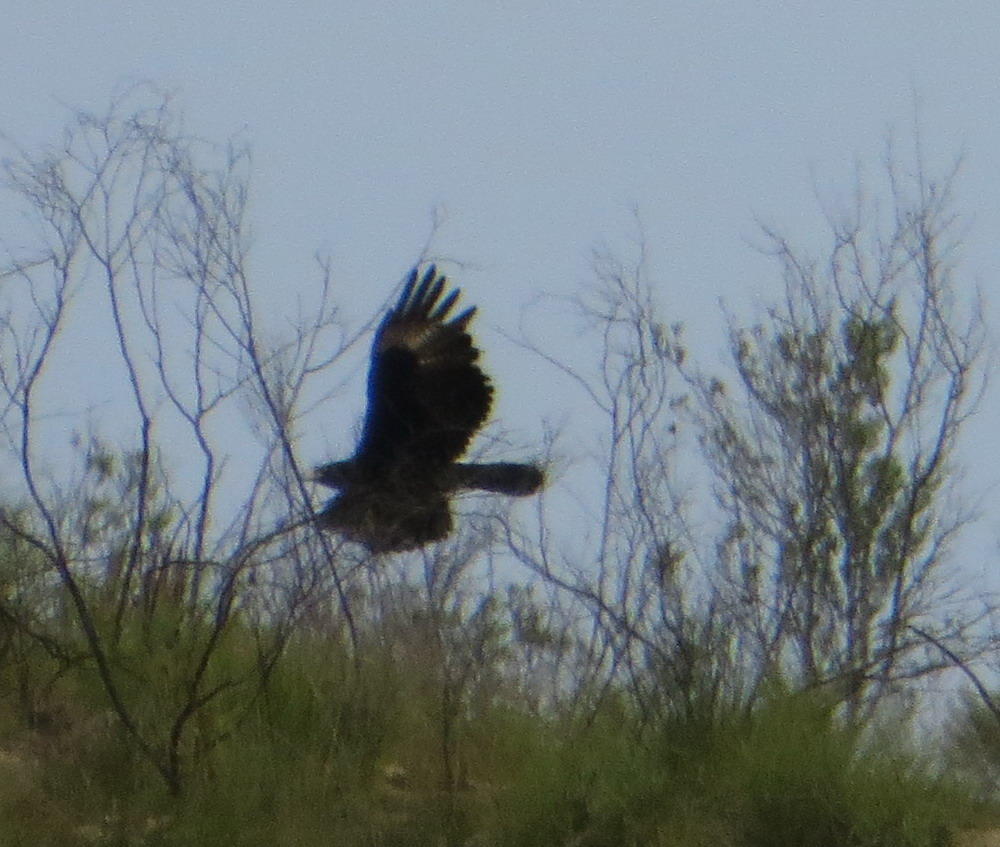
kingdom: Animalia
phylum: Chordata
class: Aves
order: Accipitriformes
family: Accipitridae
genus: Aquila
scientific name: Aquila verreauxii
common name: Verreaux's eagle
